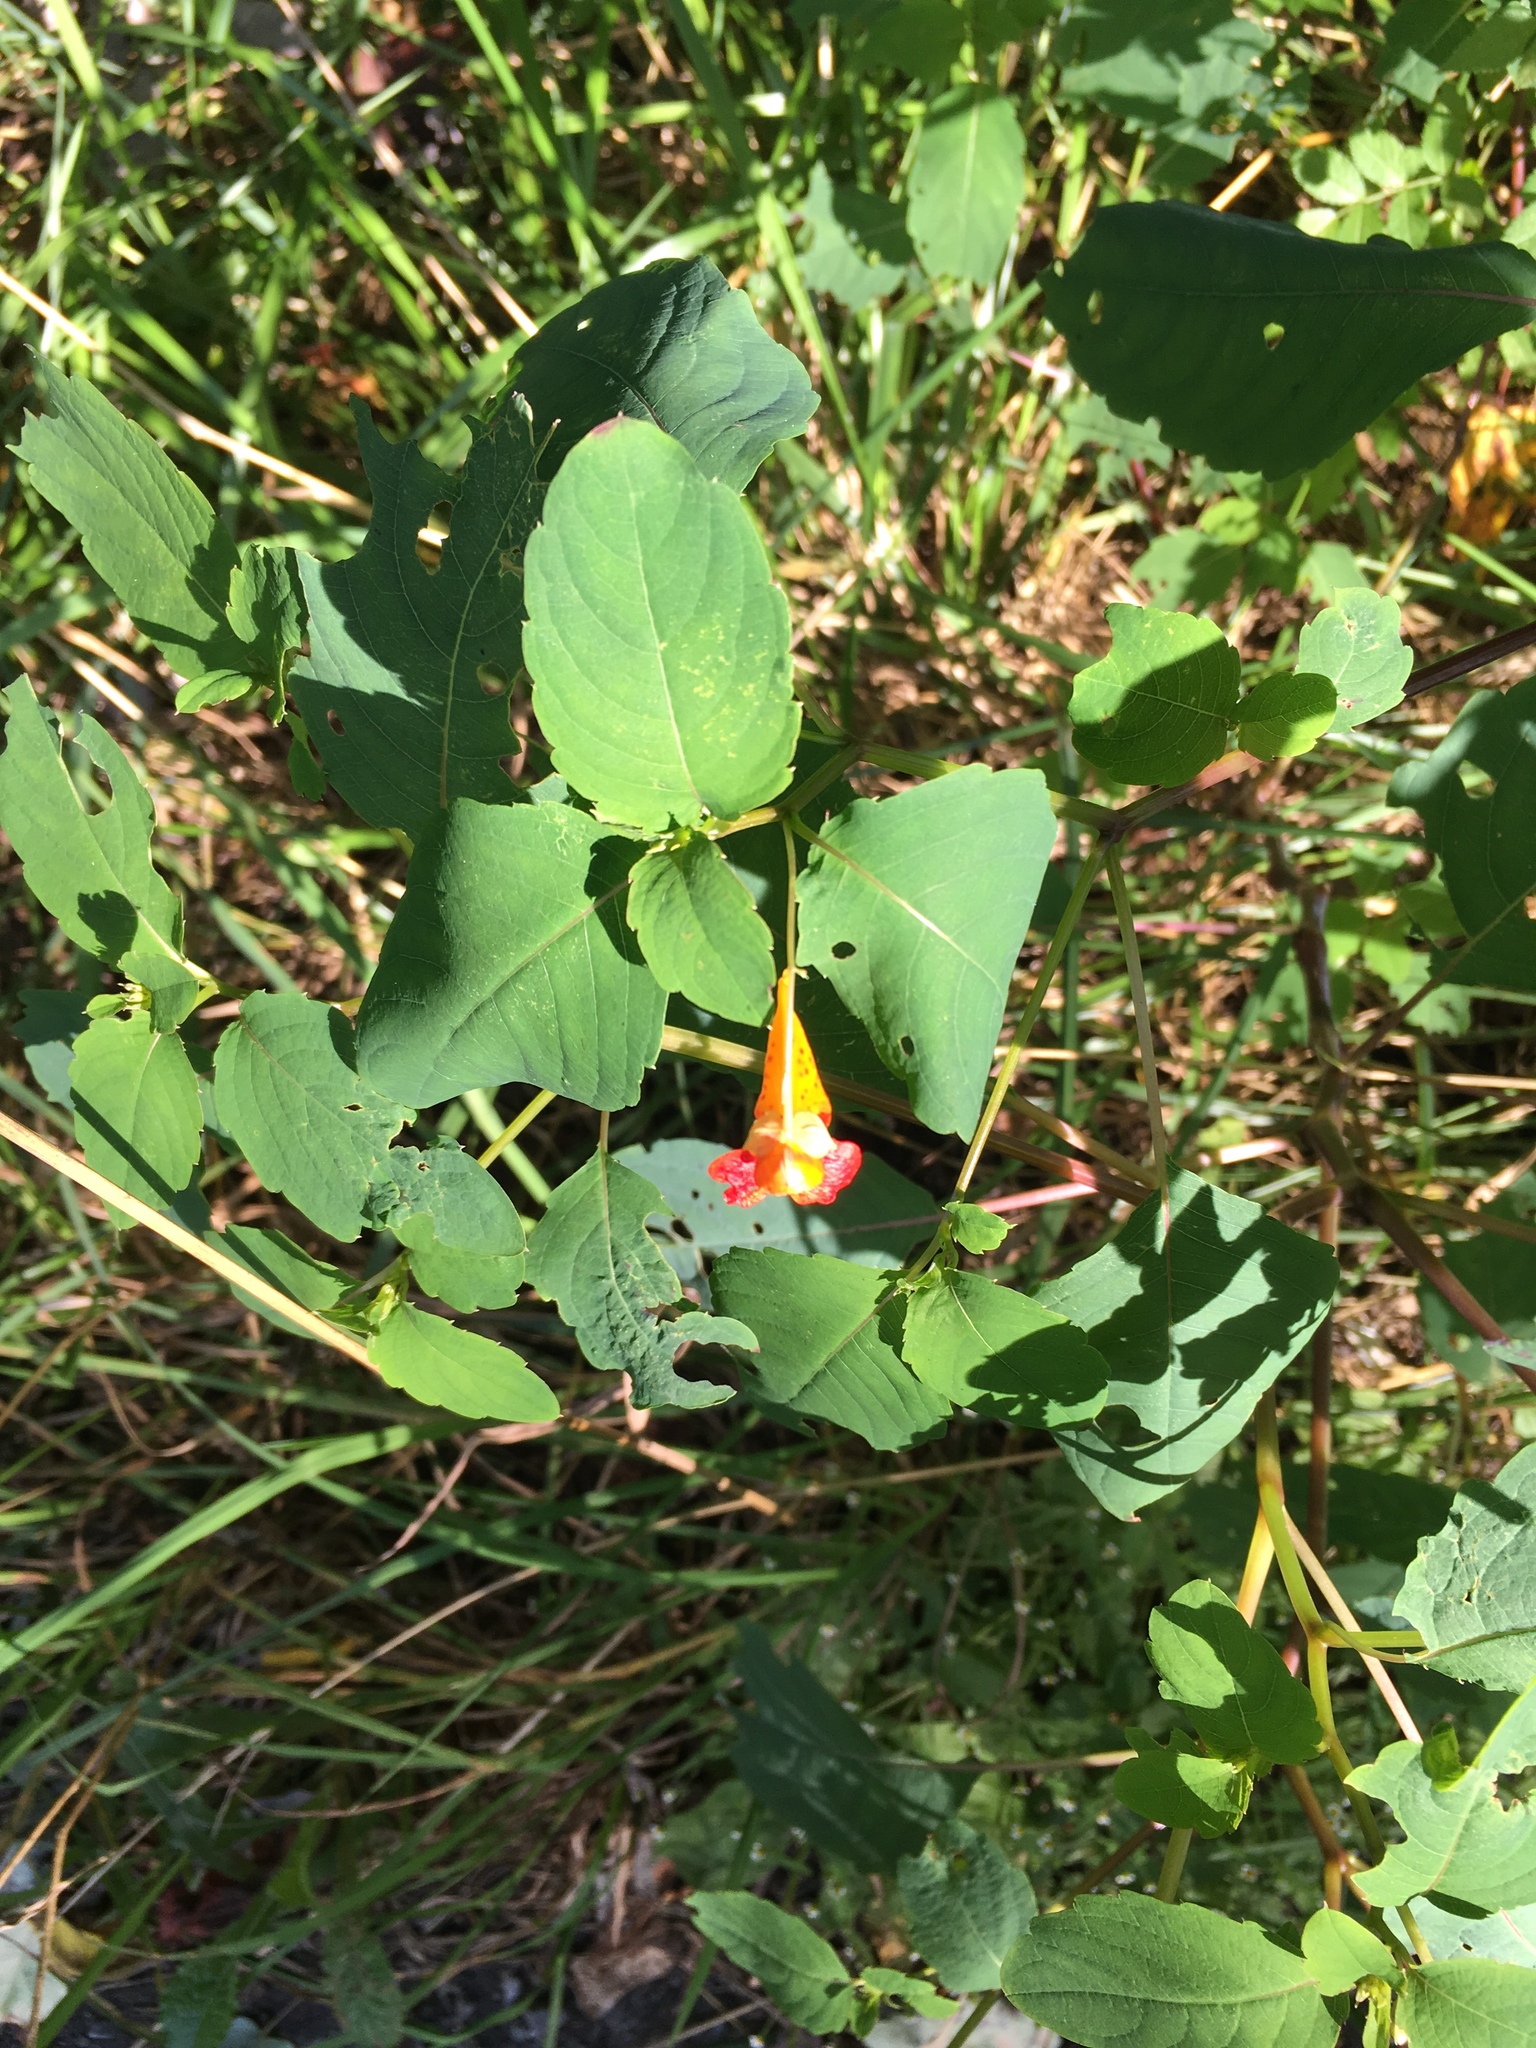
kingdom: Plantae
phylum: Tracheophyta
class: Magnoliopsida
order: Ericales
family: Balsaminaceae
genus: Impatiens
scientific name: Impatiens capensis
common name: Orange balsam
